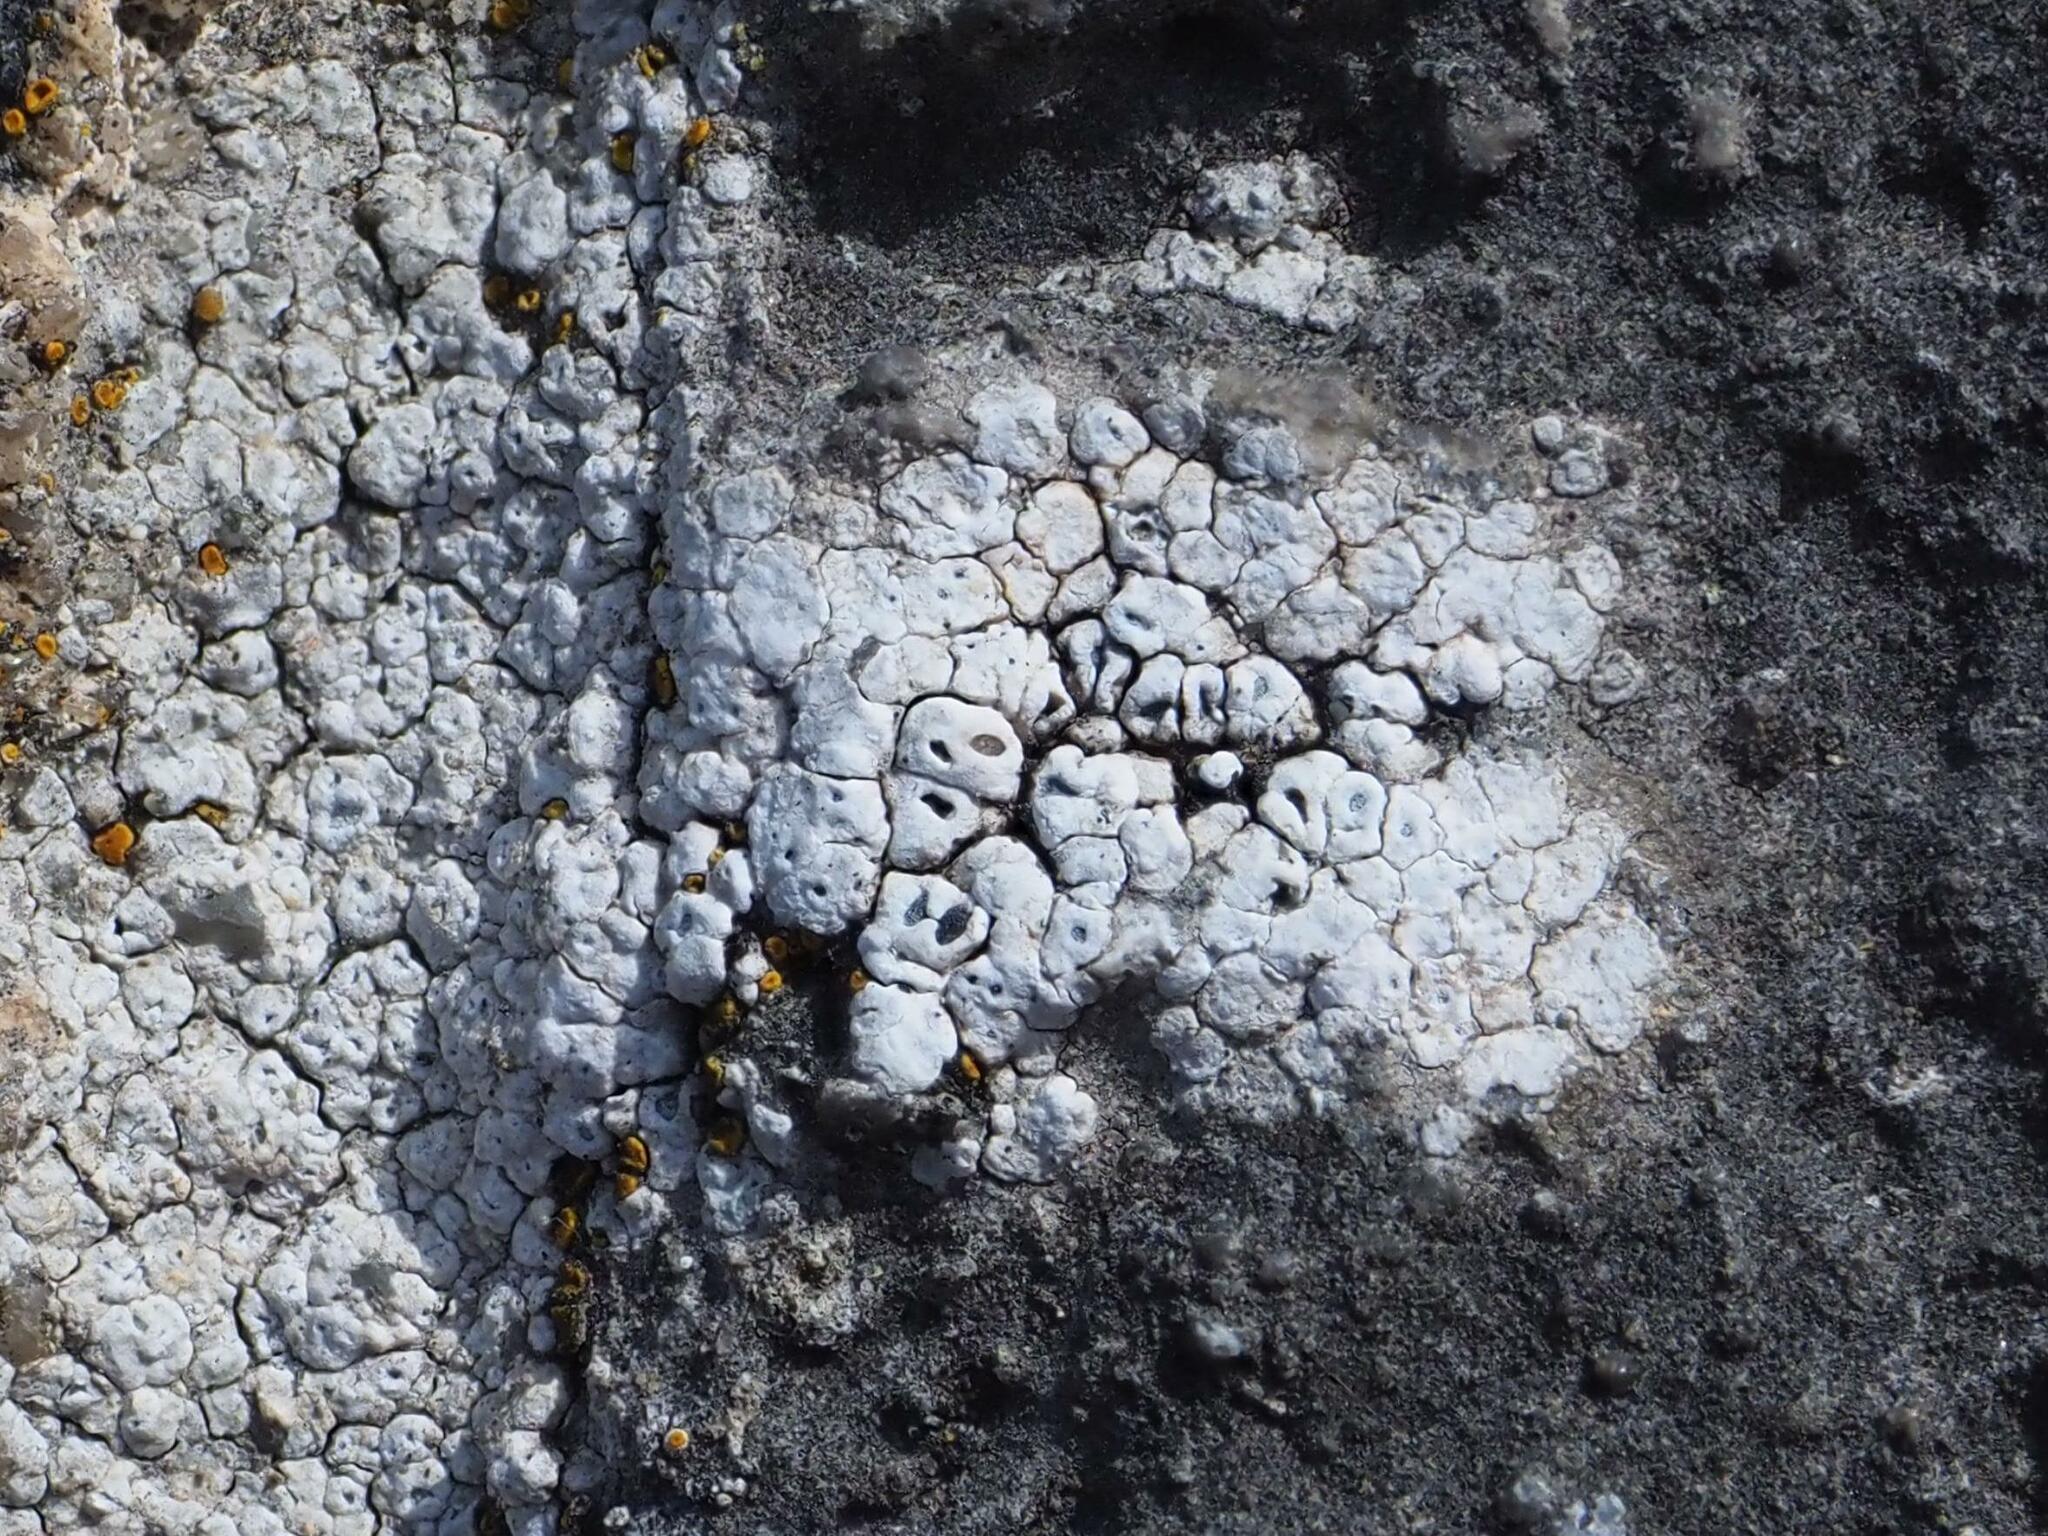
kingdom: Fungi
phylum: Ascomycota
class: Lecanoromycetes
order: Pertusariales
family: Megasporaceae
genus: Circinaria
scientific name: Circinaria contorta
